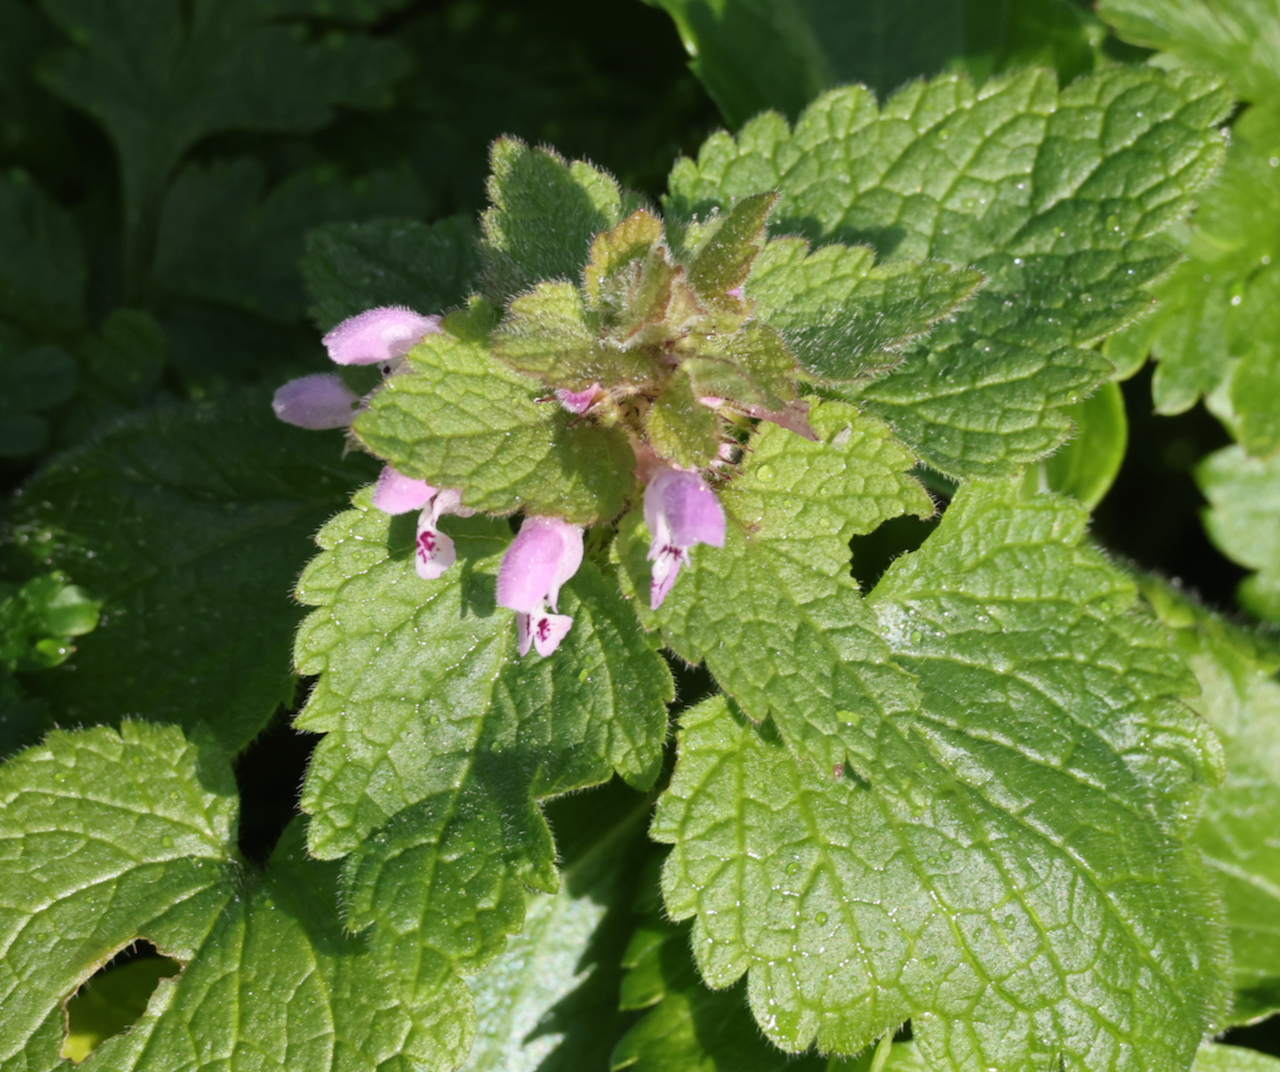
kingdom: Plantae
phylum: Tracheophyta
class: Magnoliopsida
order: Lamiales
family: Lamiaceae
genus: Lamium
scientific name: Lamium purpureum
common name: Red dead-nettle
